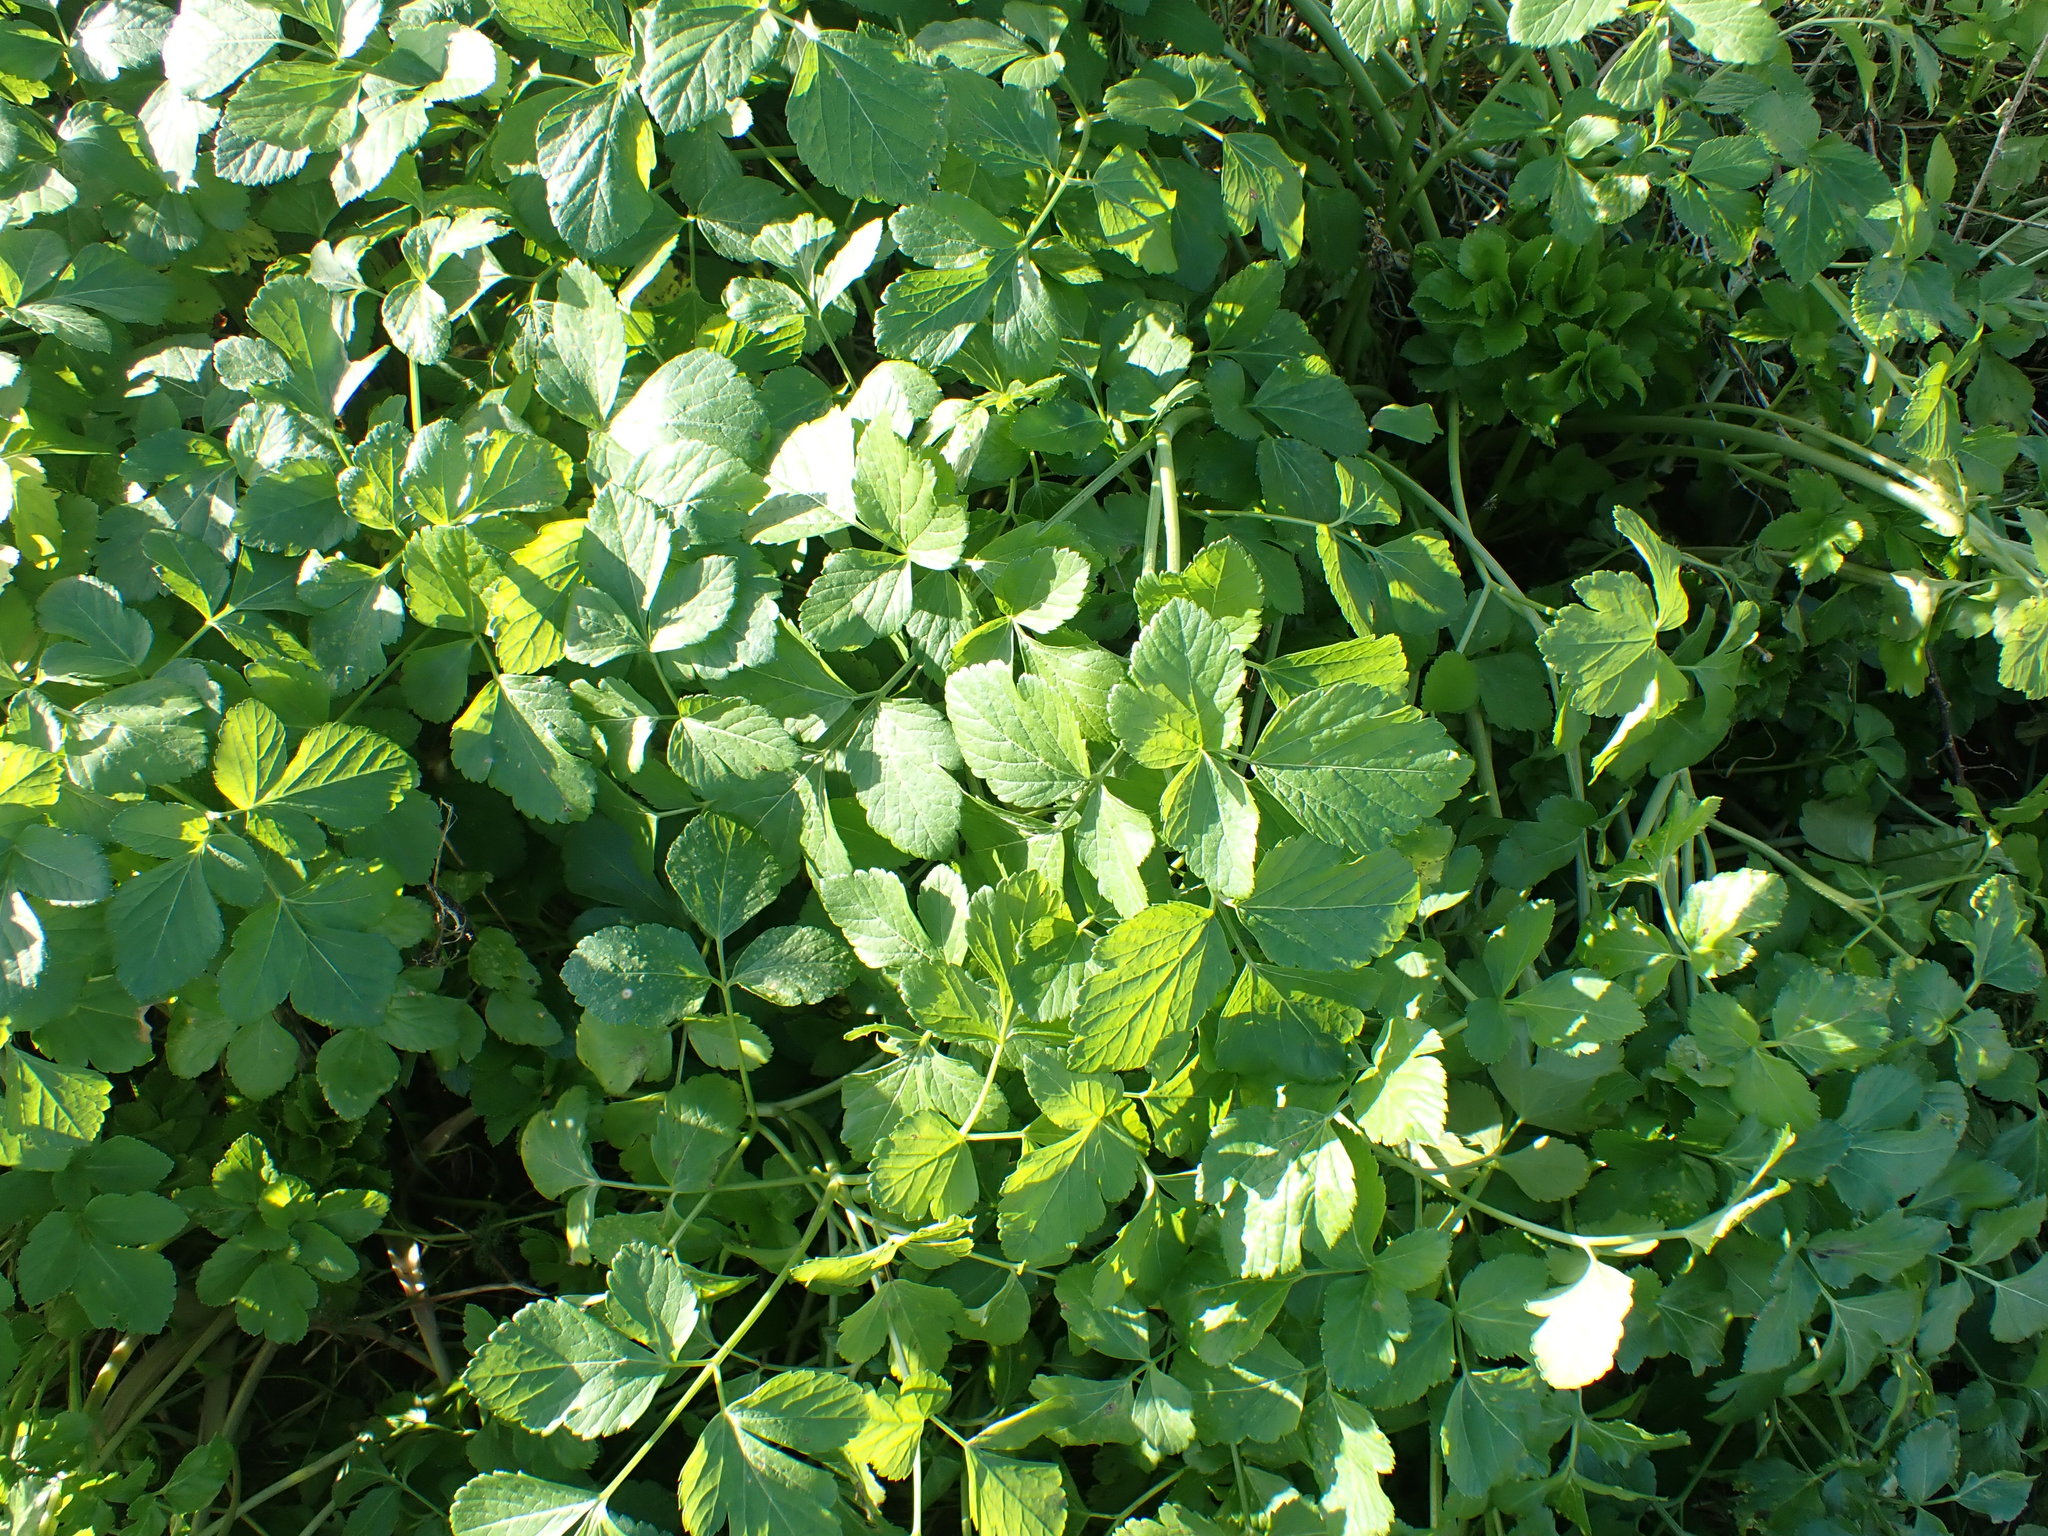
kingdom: Plantae
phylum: Tracheophyta
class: Magnoliopsida
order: Apiales
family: Apiaceae
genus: Smyrnium
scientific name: Smyrnium olusatrum
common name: Alexanders
